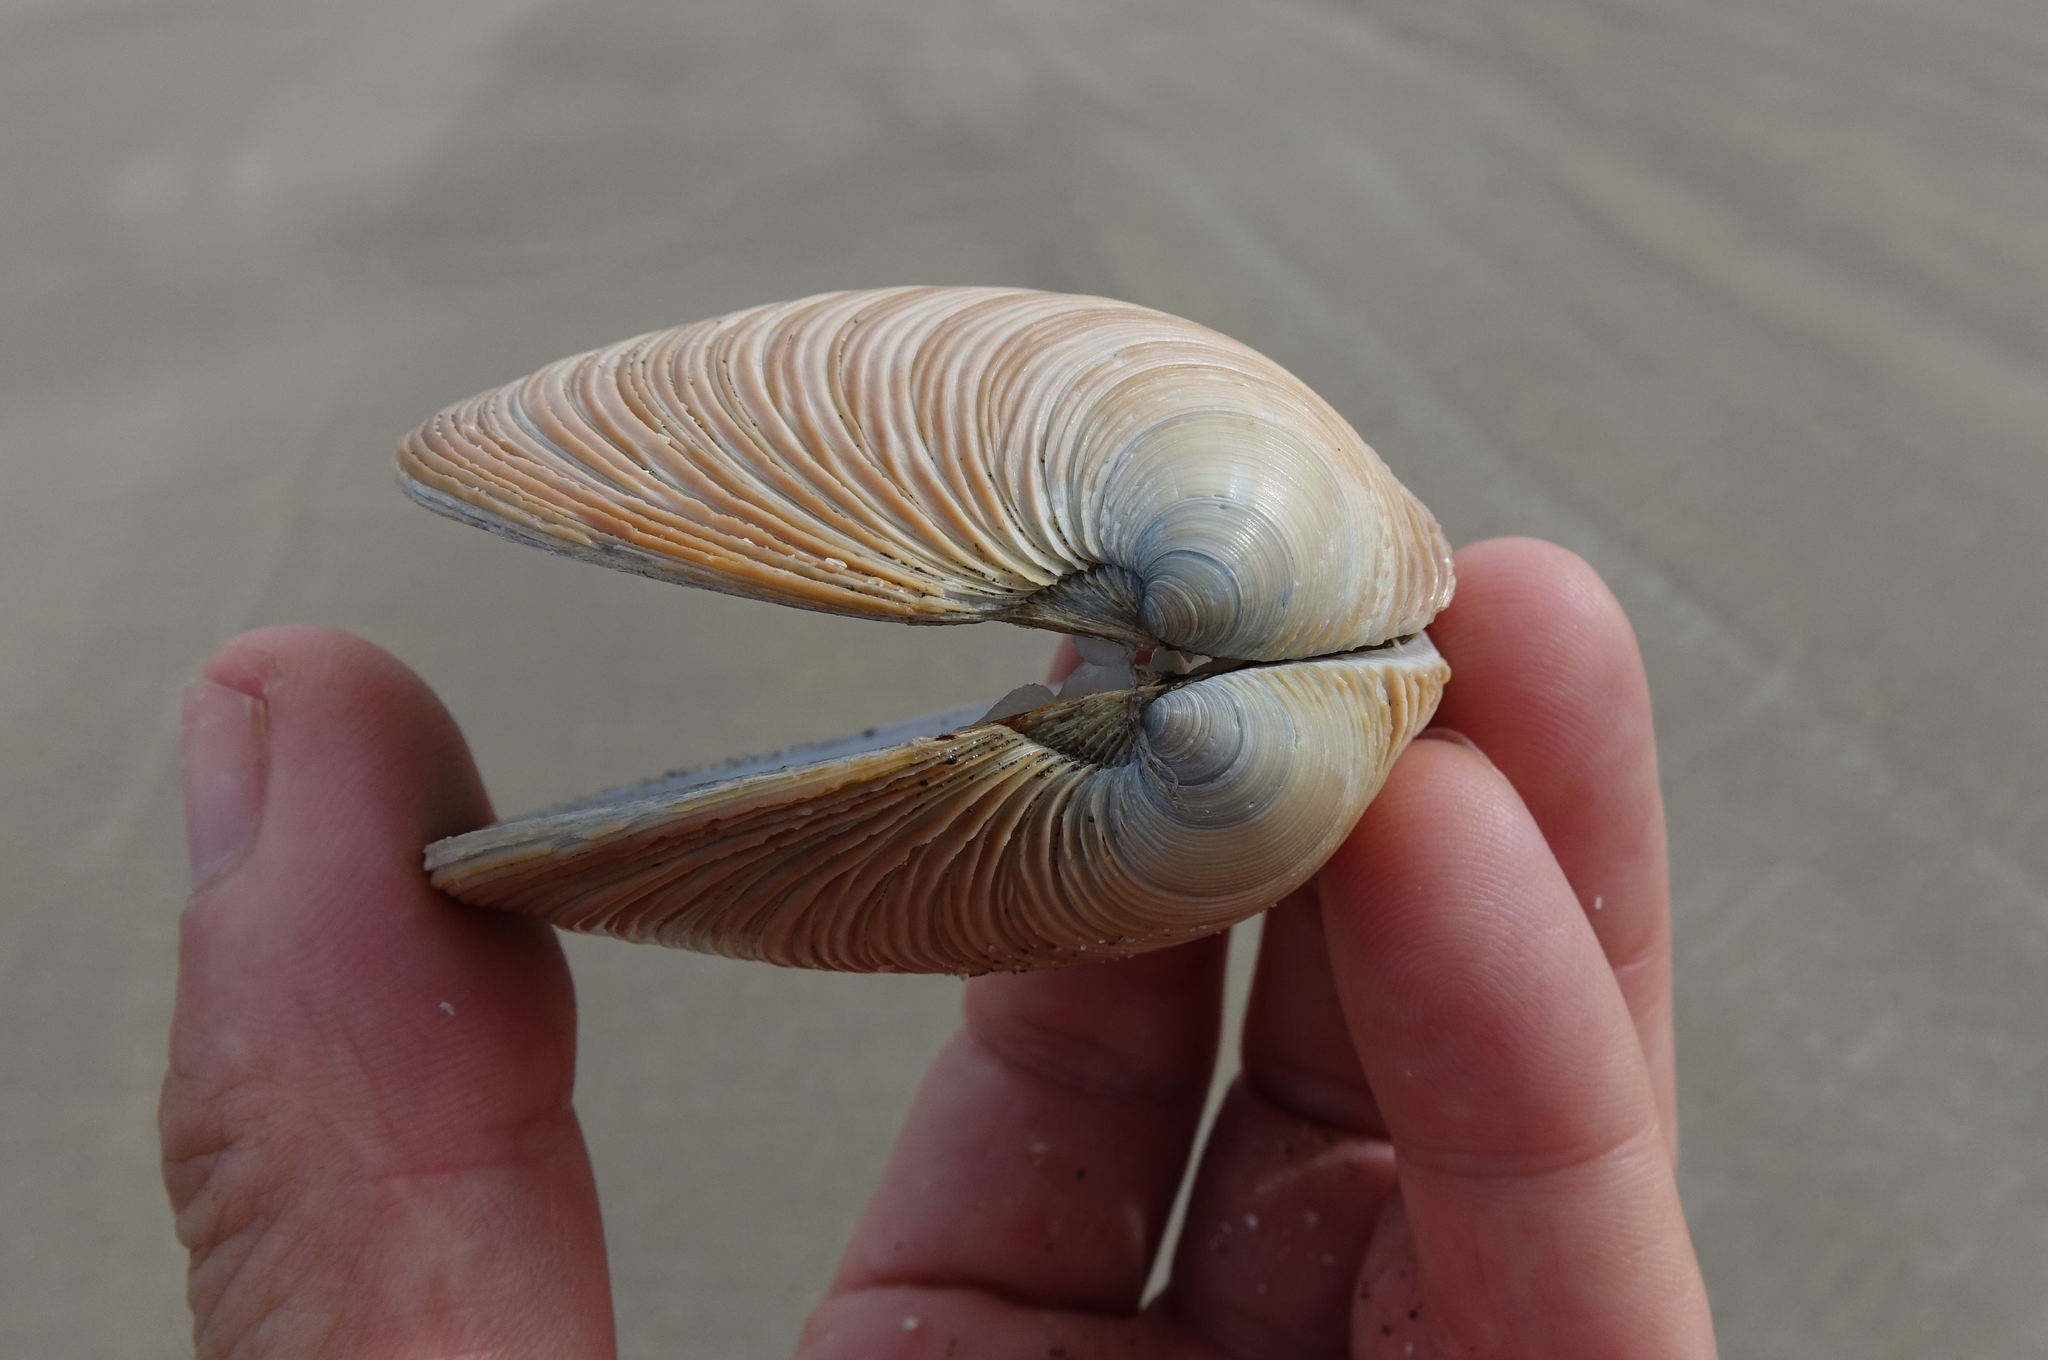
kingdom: Animalia
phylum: Mollusca
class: Bivalvia
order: Venerida
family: Veneridae
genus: Dosinia
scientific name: Dosinia anus
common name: Old-woman dosinia
